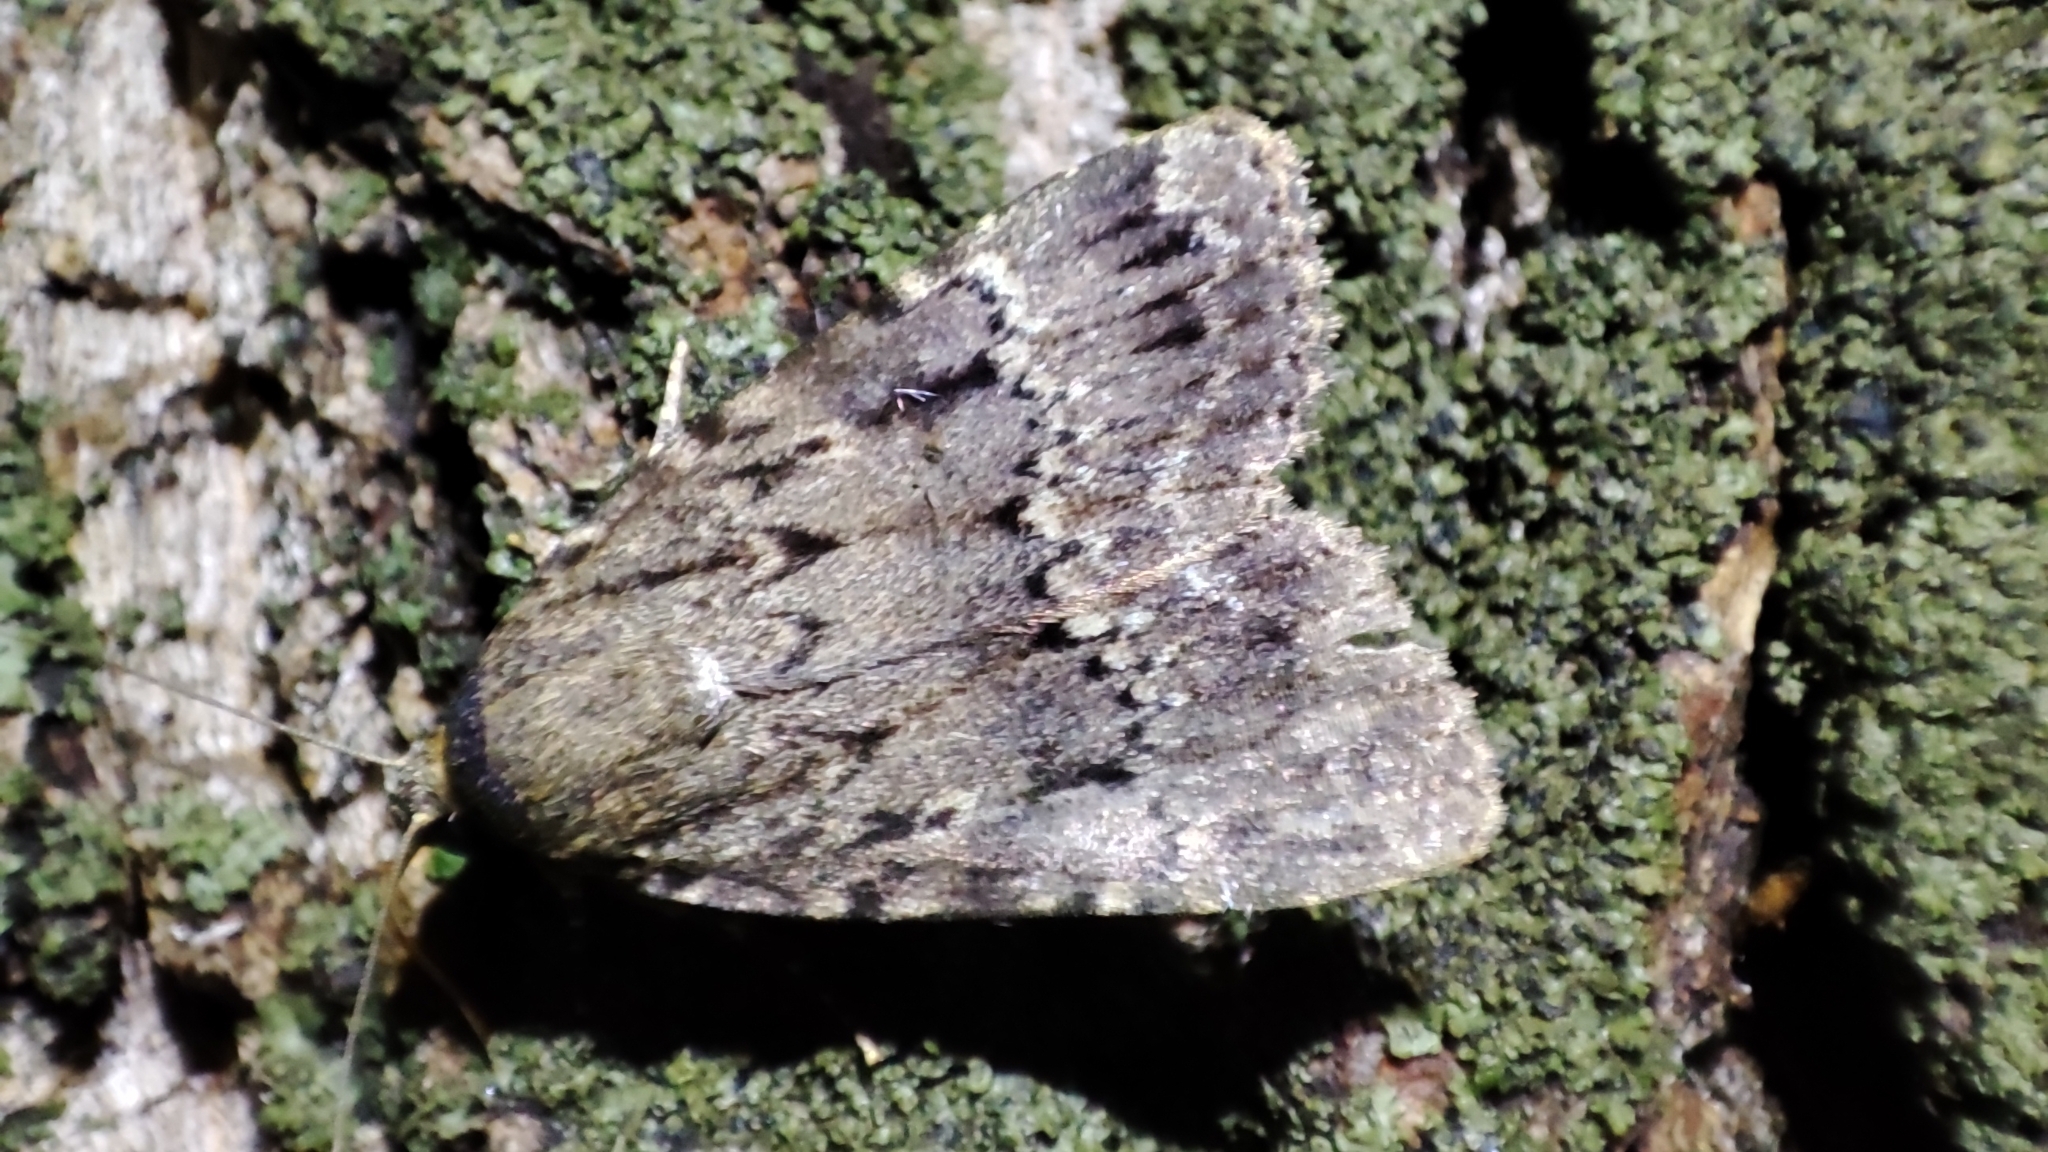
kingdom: Animalia
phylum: Arthropoda
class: Insecta
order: Lepidoptera
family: Noctuidae
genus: Amphipyra
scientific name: Amphipyra pyramidea
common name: Copper underwing
